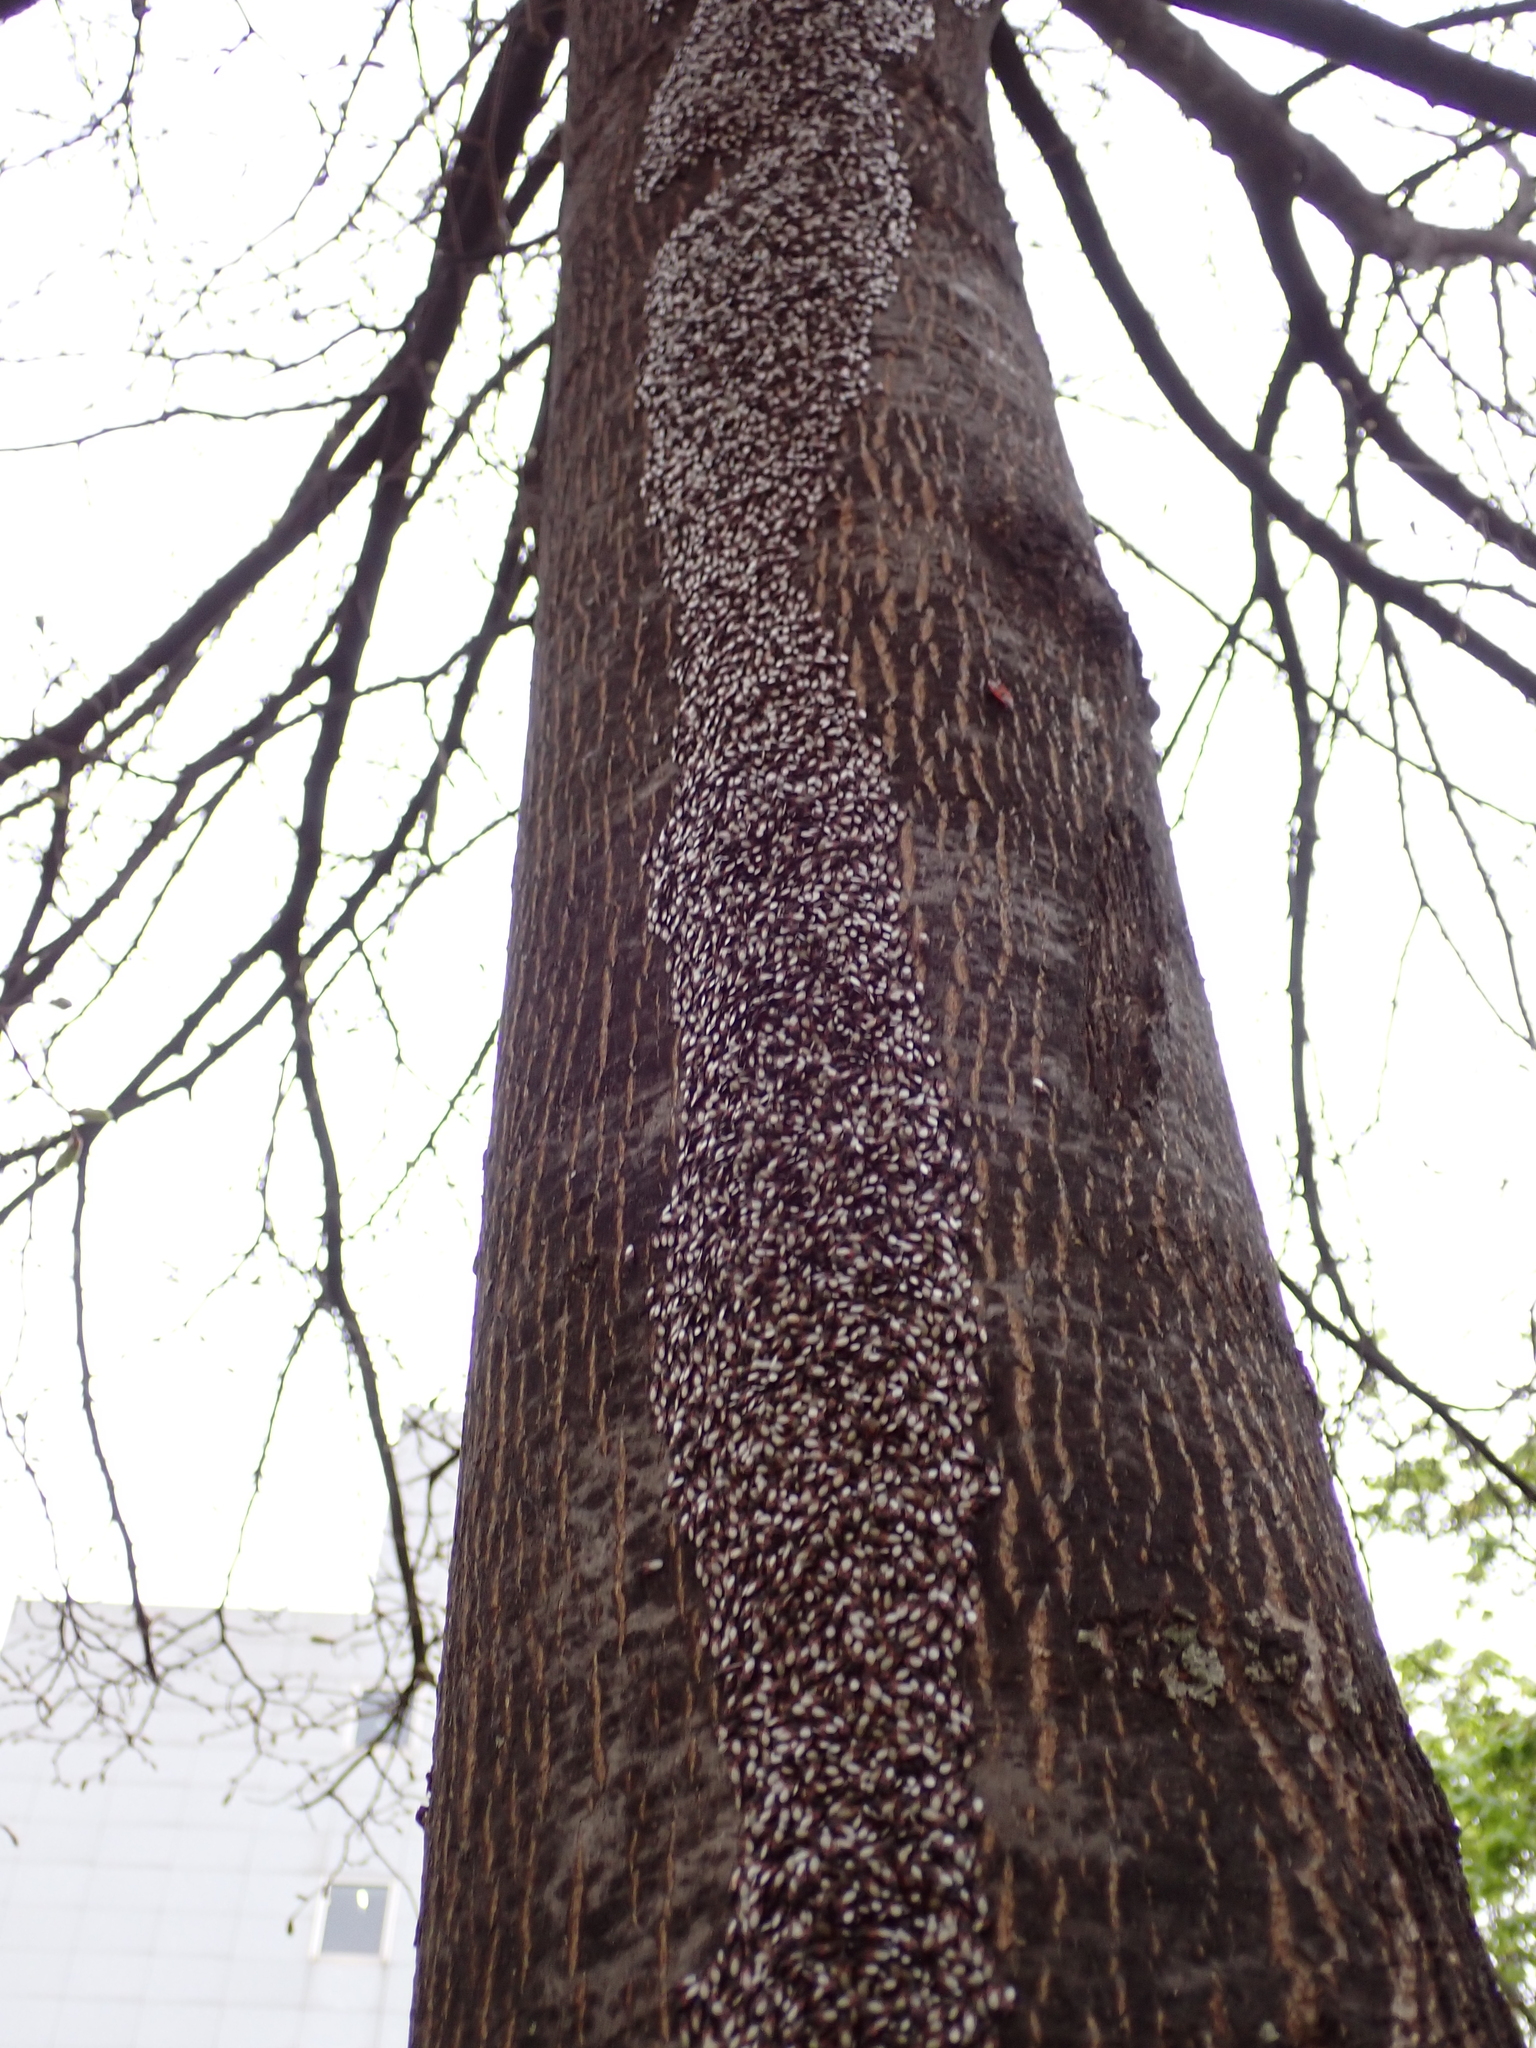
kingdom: Animalia
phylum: Arthropoda
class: Insecta
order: Hemiptera
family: Oxycarenidae
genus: Oxycarenus
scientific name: Oxycarenus lavaterae
